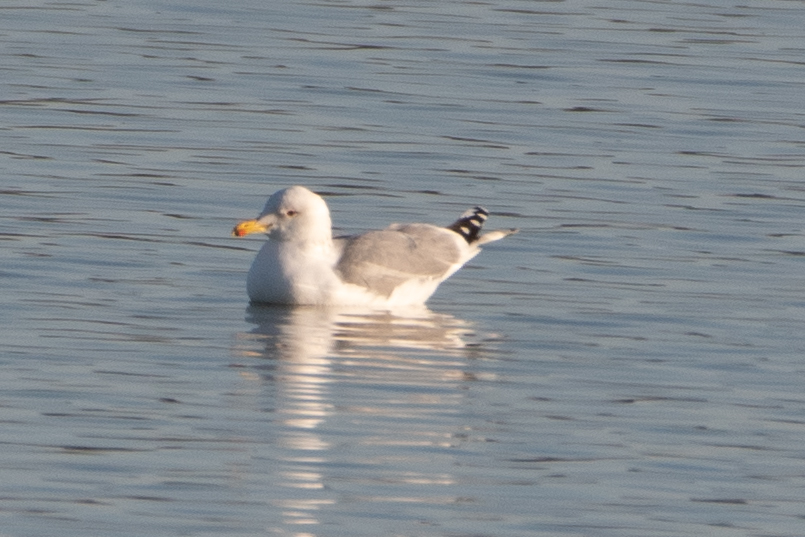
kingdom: Animalia
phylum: Chordata
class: Aves
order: Charadriiformes
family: Laridae
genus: Larus
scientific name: Larus californicus
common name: California gull
